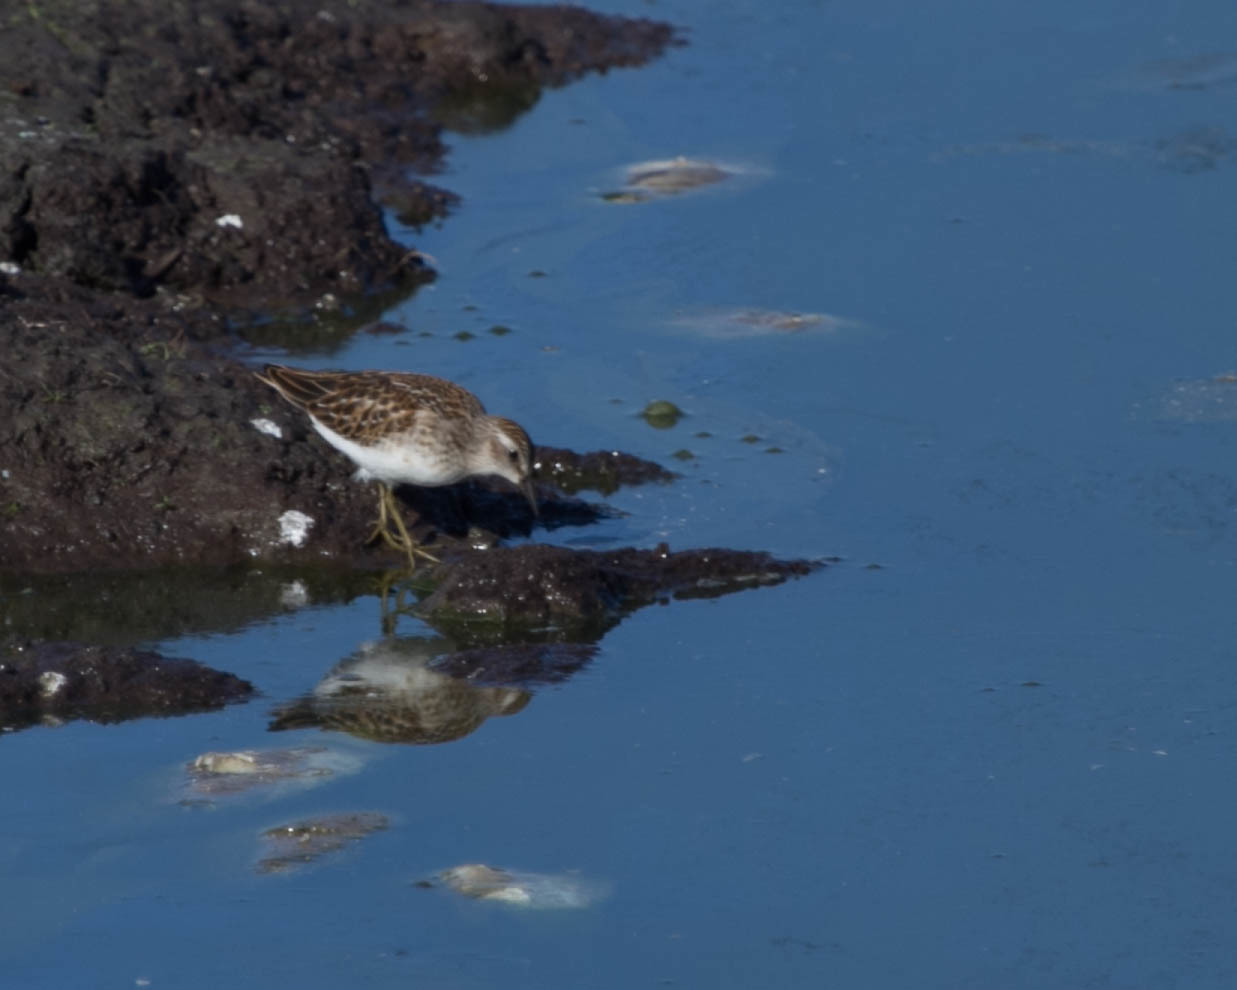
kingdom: Animalia
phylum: Chordata
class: Aves
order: Charadriiformes
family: Scolopacidae
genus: Calidris
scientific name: Calidris minutilla
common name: Least sandpiper
